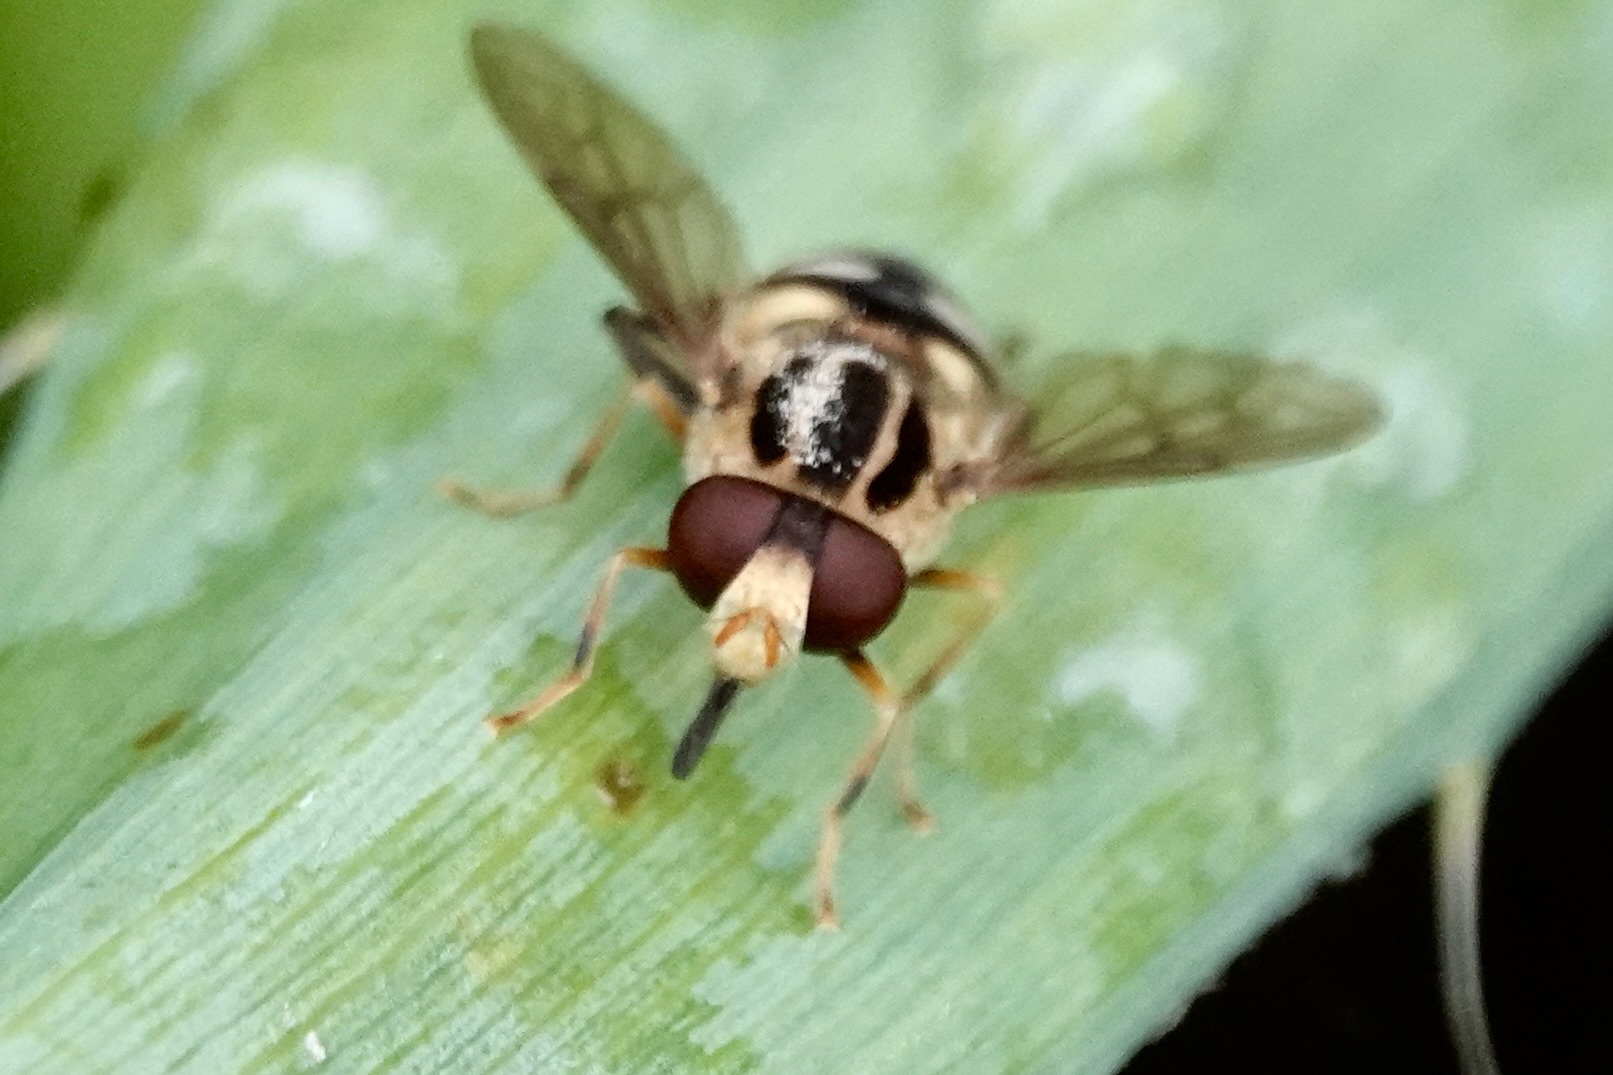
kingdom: Animalia
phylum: Arthropoda
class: Insecta
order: Diptera
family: Syrphidae
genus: Parhelophilus
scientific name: Parhelophilus flavifacies
